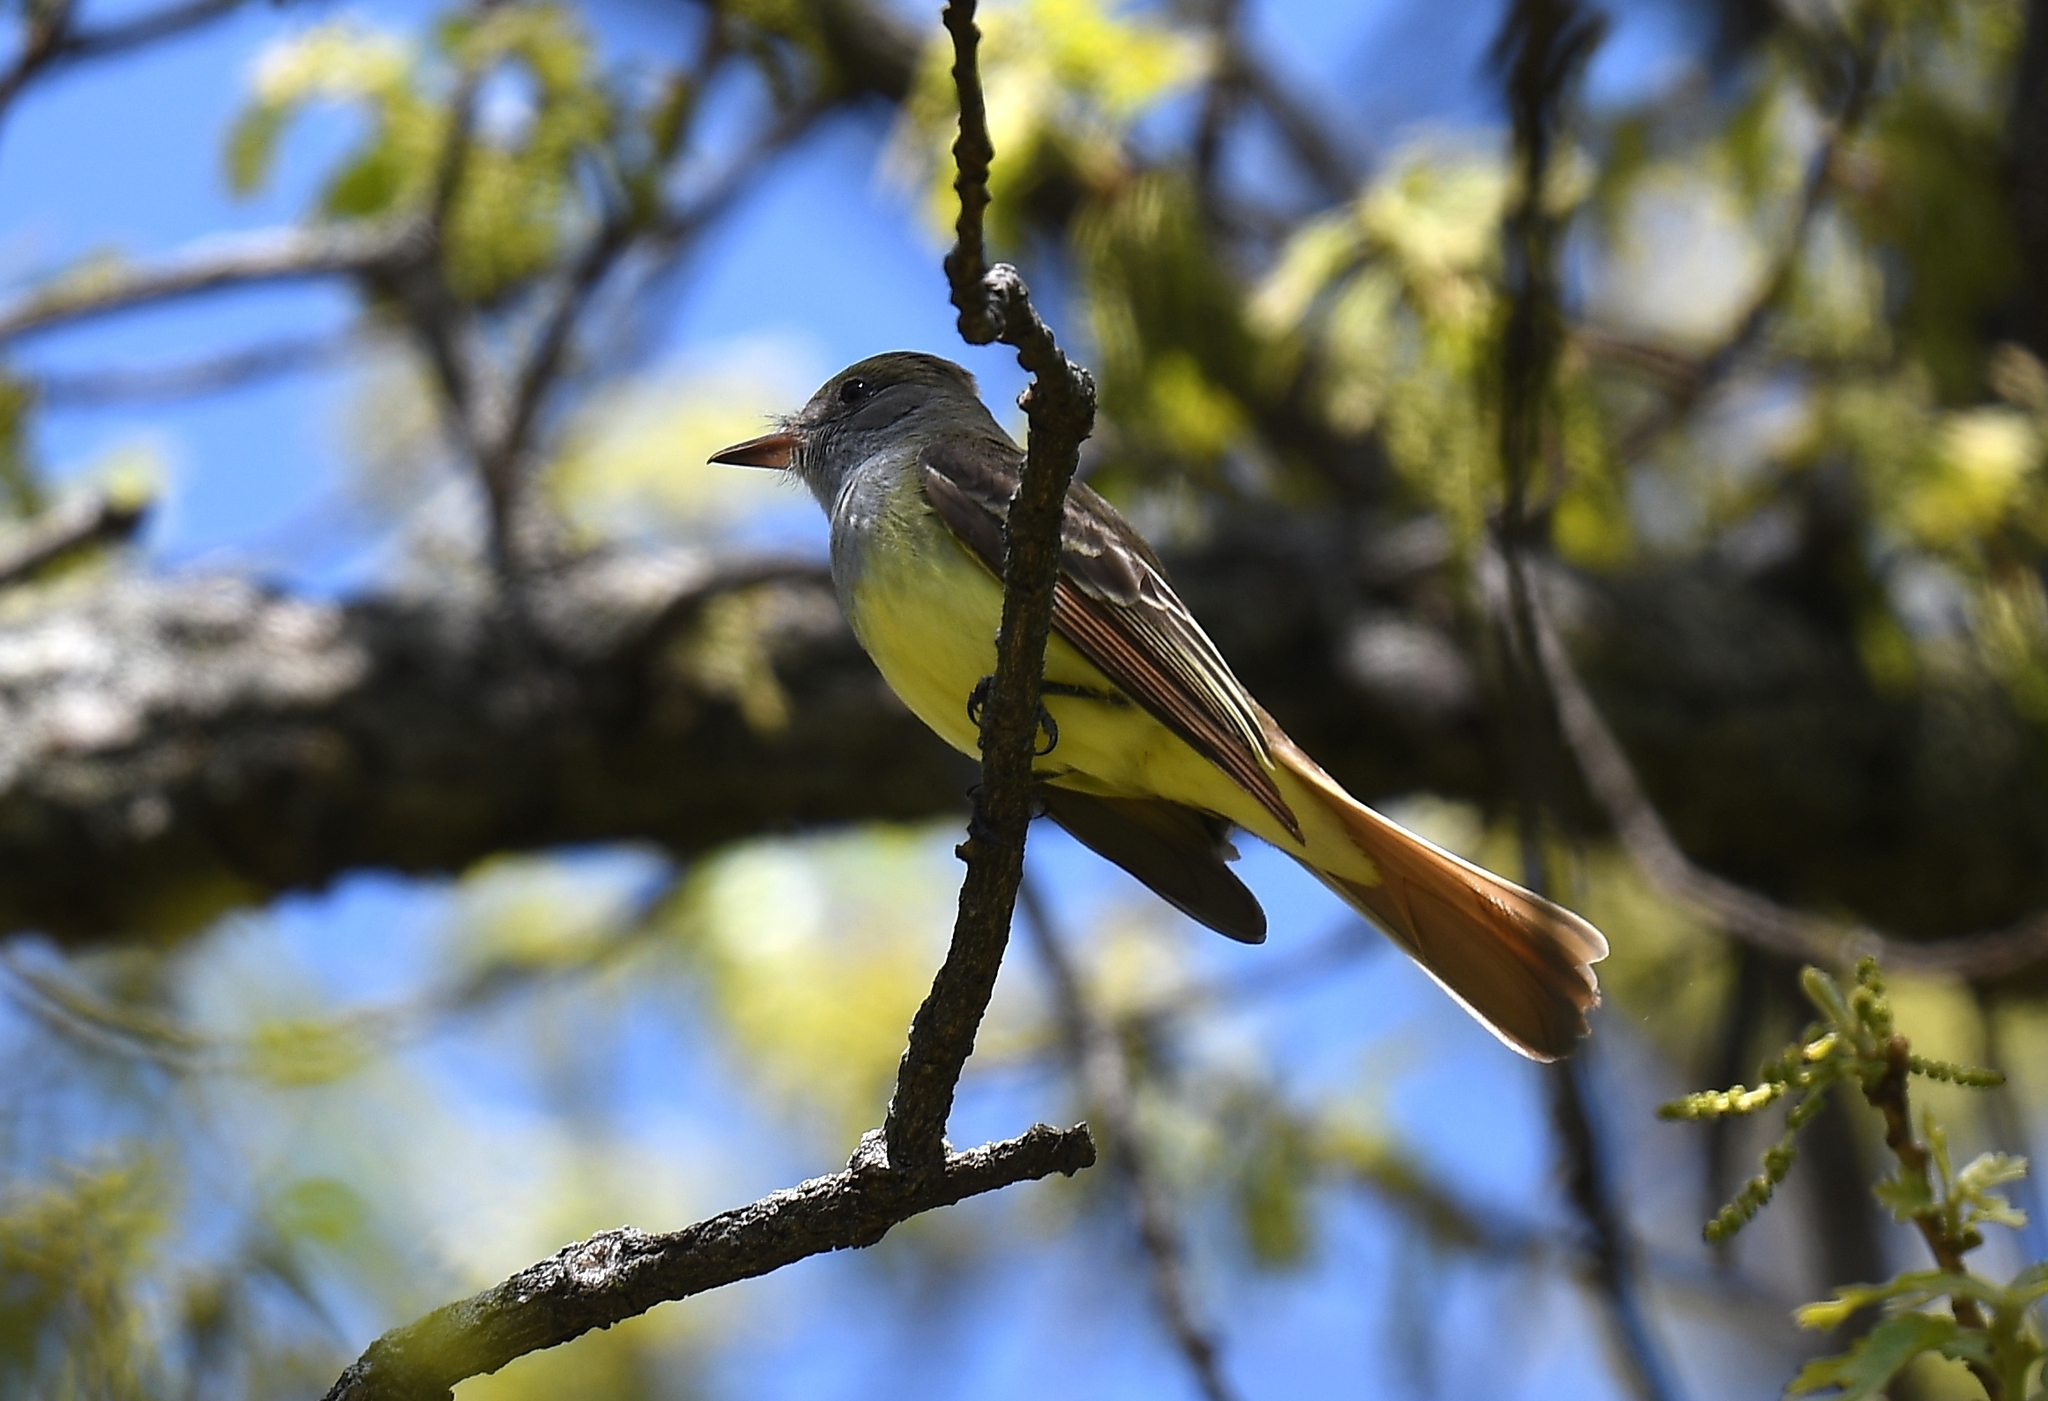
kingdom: Animalia
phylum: Chordata
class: Aves
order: Passeriformes
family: Tyrannidae
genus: Myiarchus
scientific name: Myiarchus crinitus
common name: Great crested flycatcher
